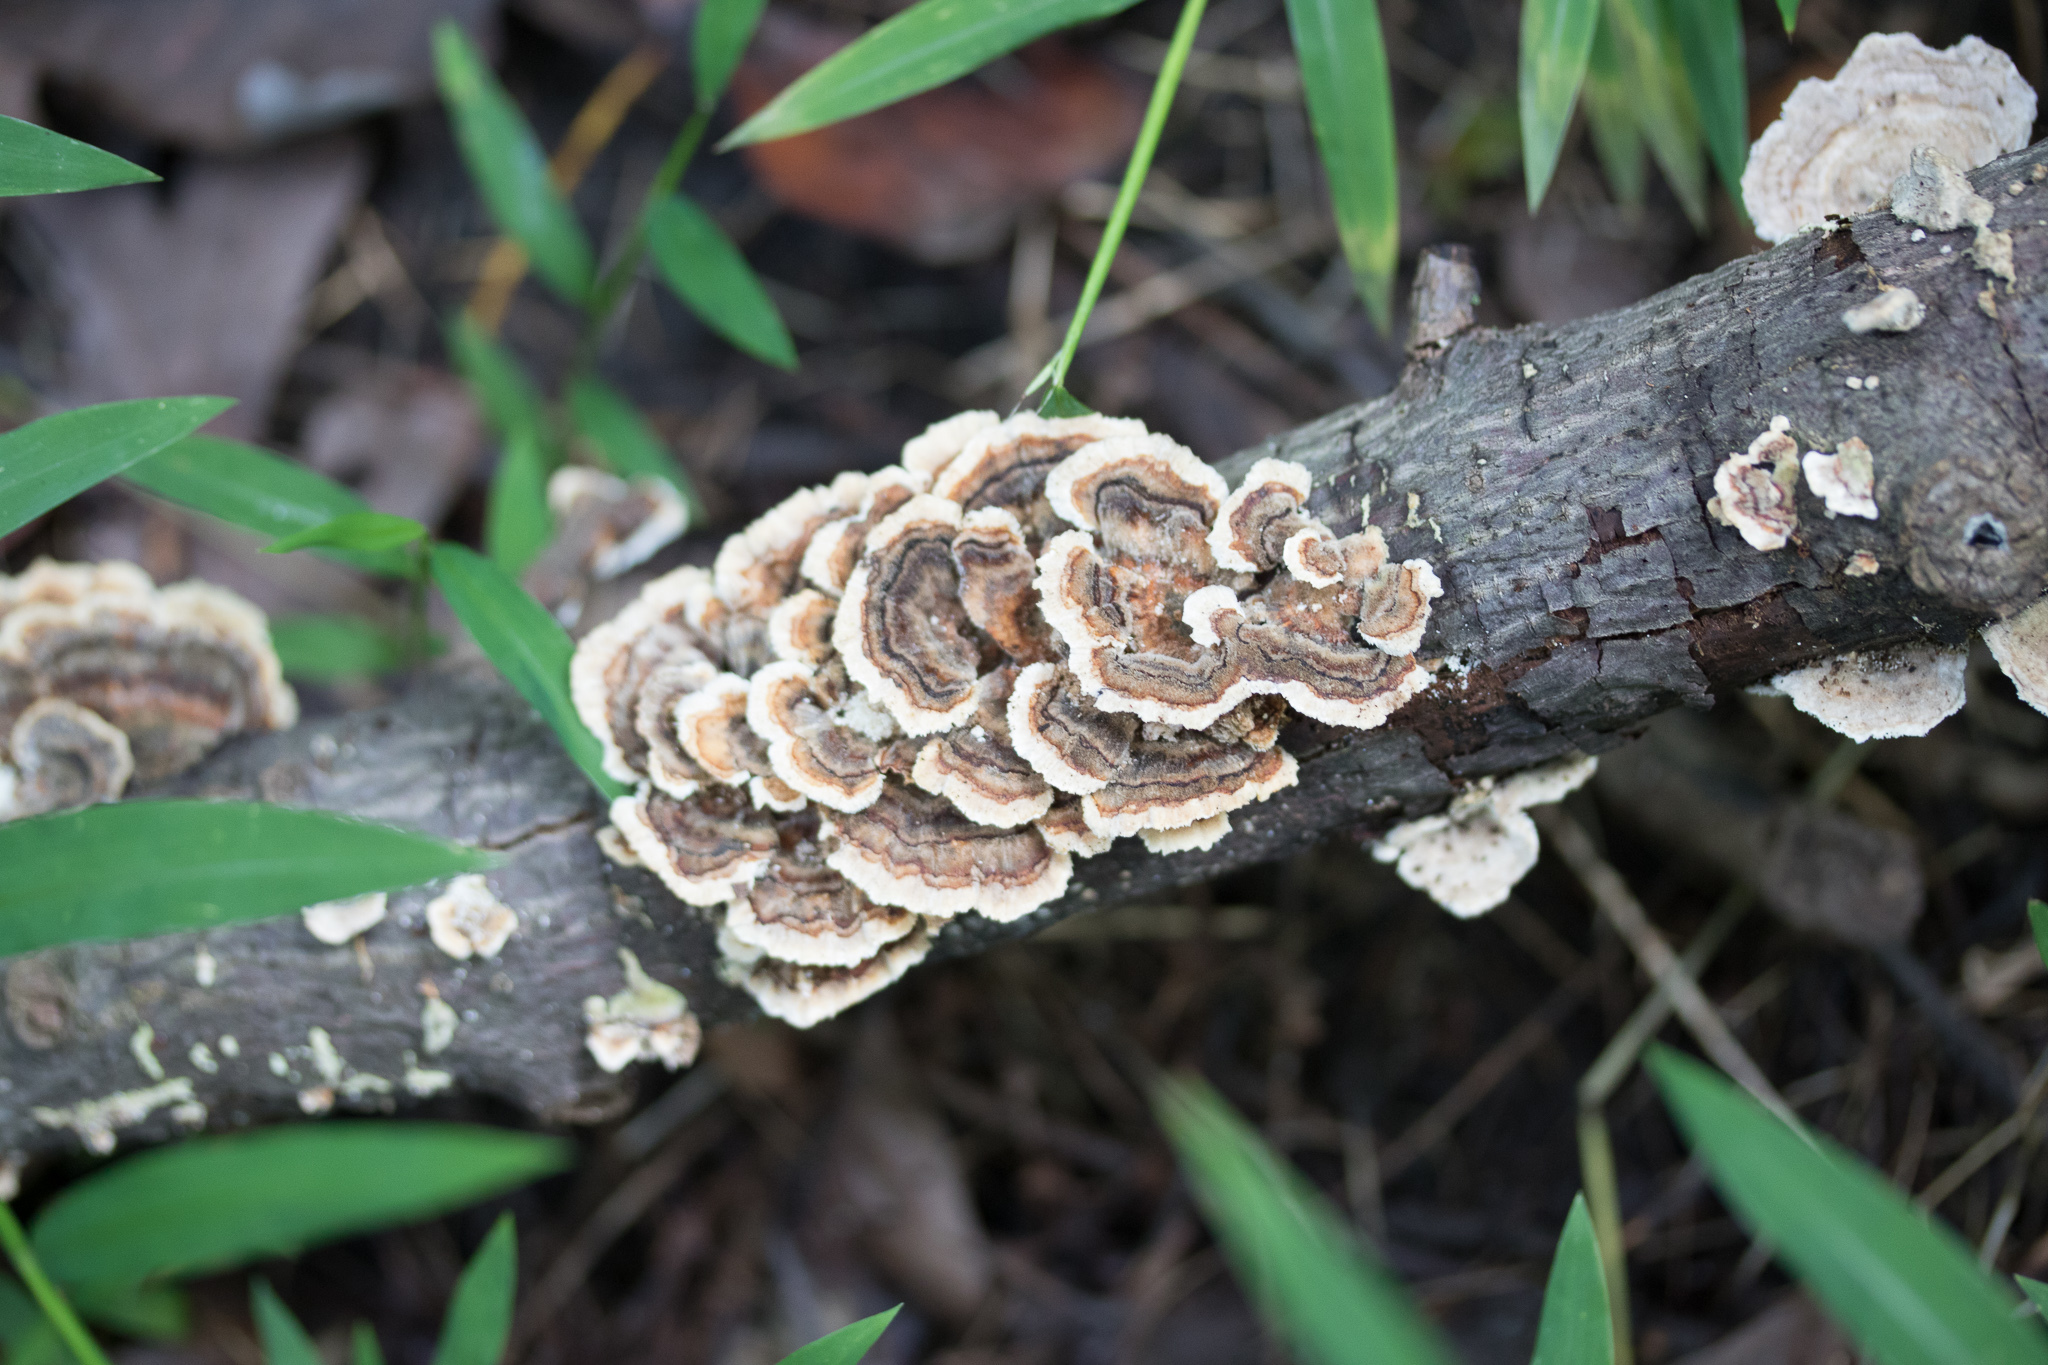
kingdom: Fungi
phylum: Basidiomycota
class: Agaricomycetes
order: Polyporales
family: Polyporaceae
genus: Trametes
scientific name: Trametes versicolor
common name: Turkeytail
